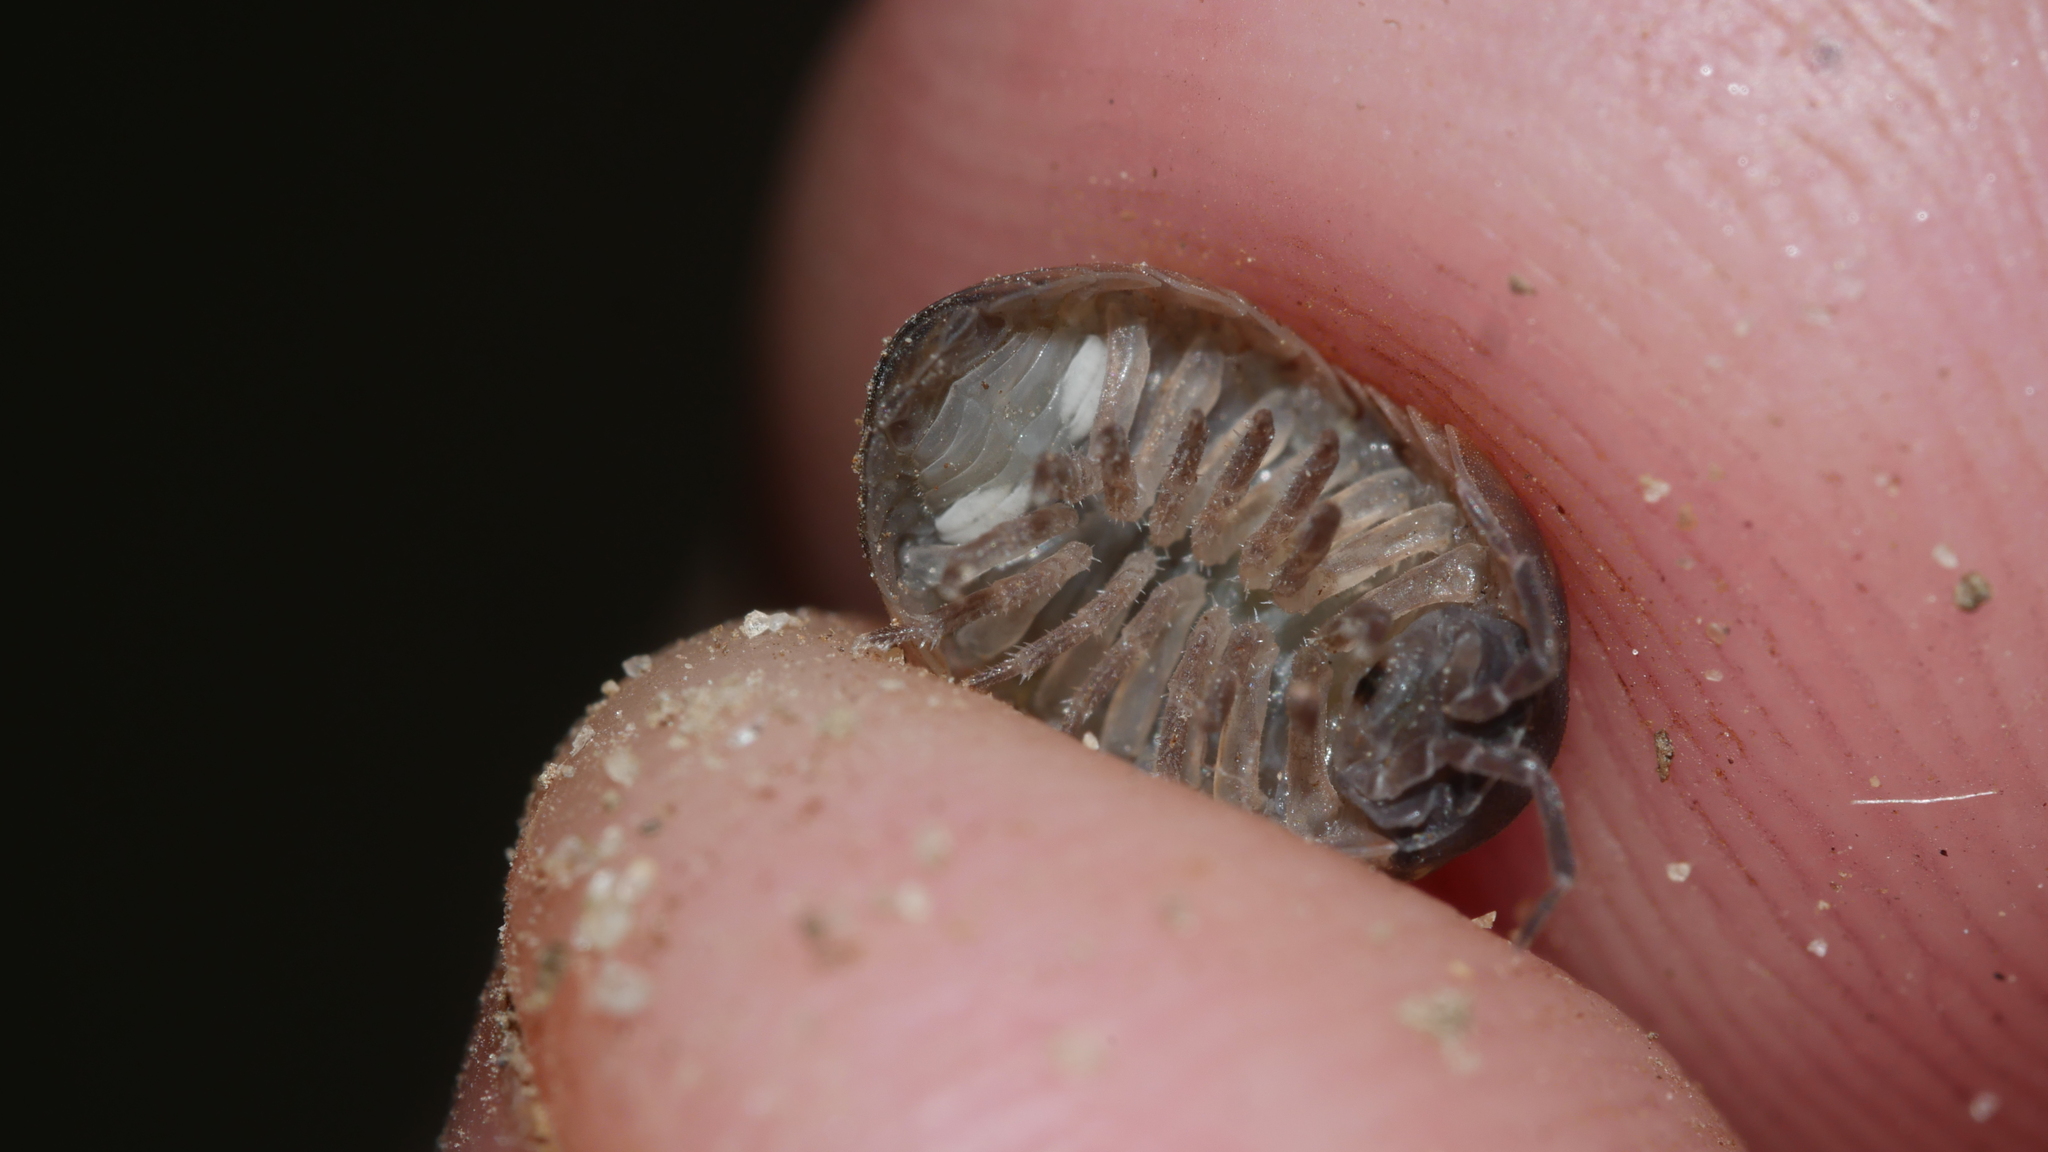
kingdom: Animalia
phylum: Arthropoda
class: Malacostraca
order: Isopoda
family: Armadillidiidae
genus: Armadillidium
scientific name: Armadillidium vulgare
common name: Common pill woodlouse
